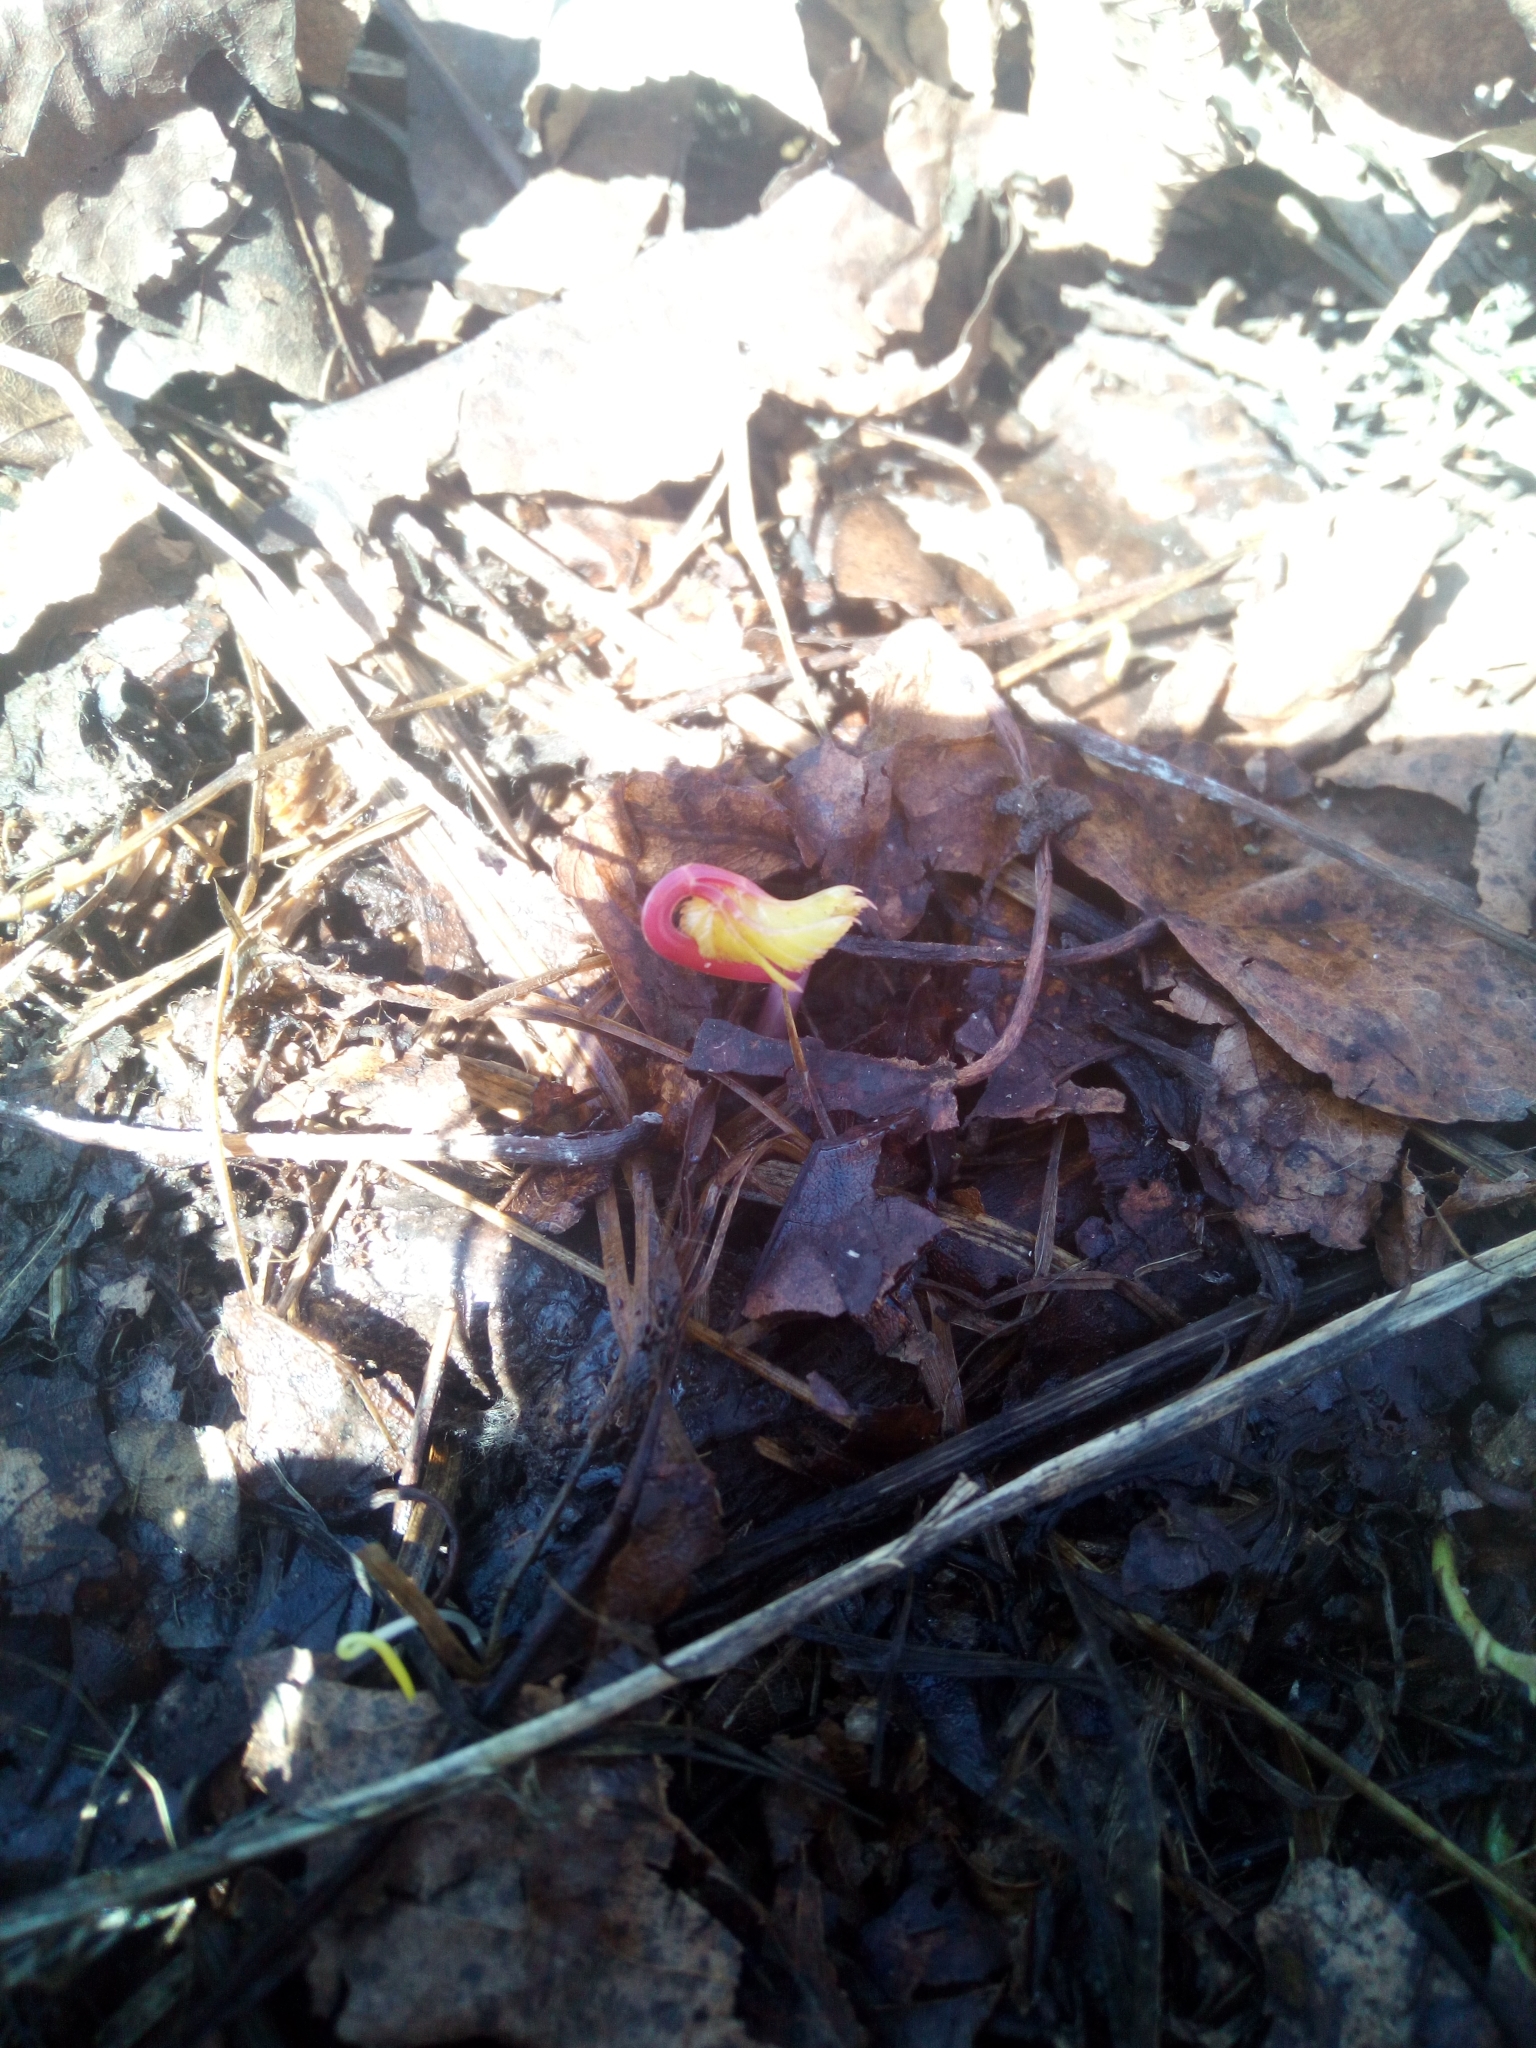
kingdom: Plantae
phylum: Tracheophyta
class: Magnoliopsida
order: Apiales
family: Apiaceae
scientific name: Apiaceae
